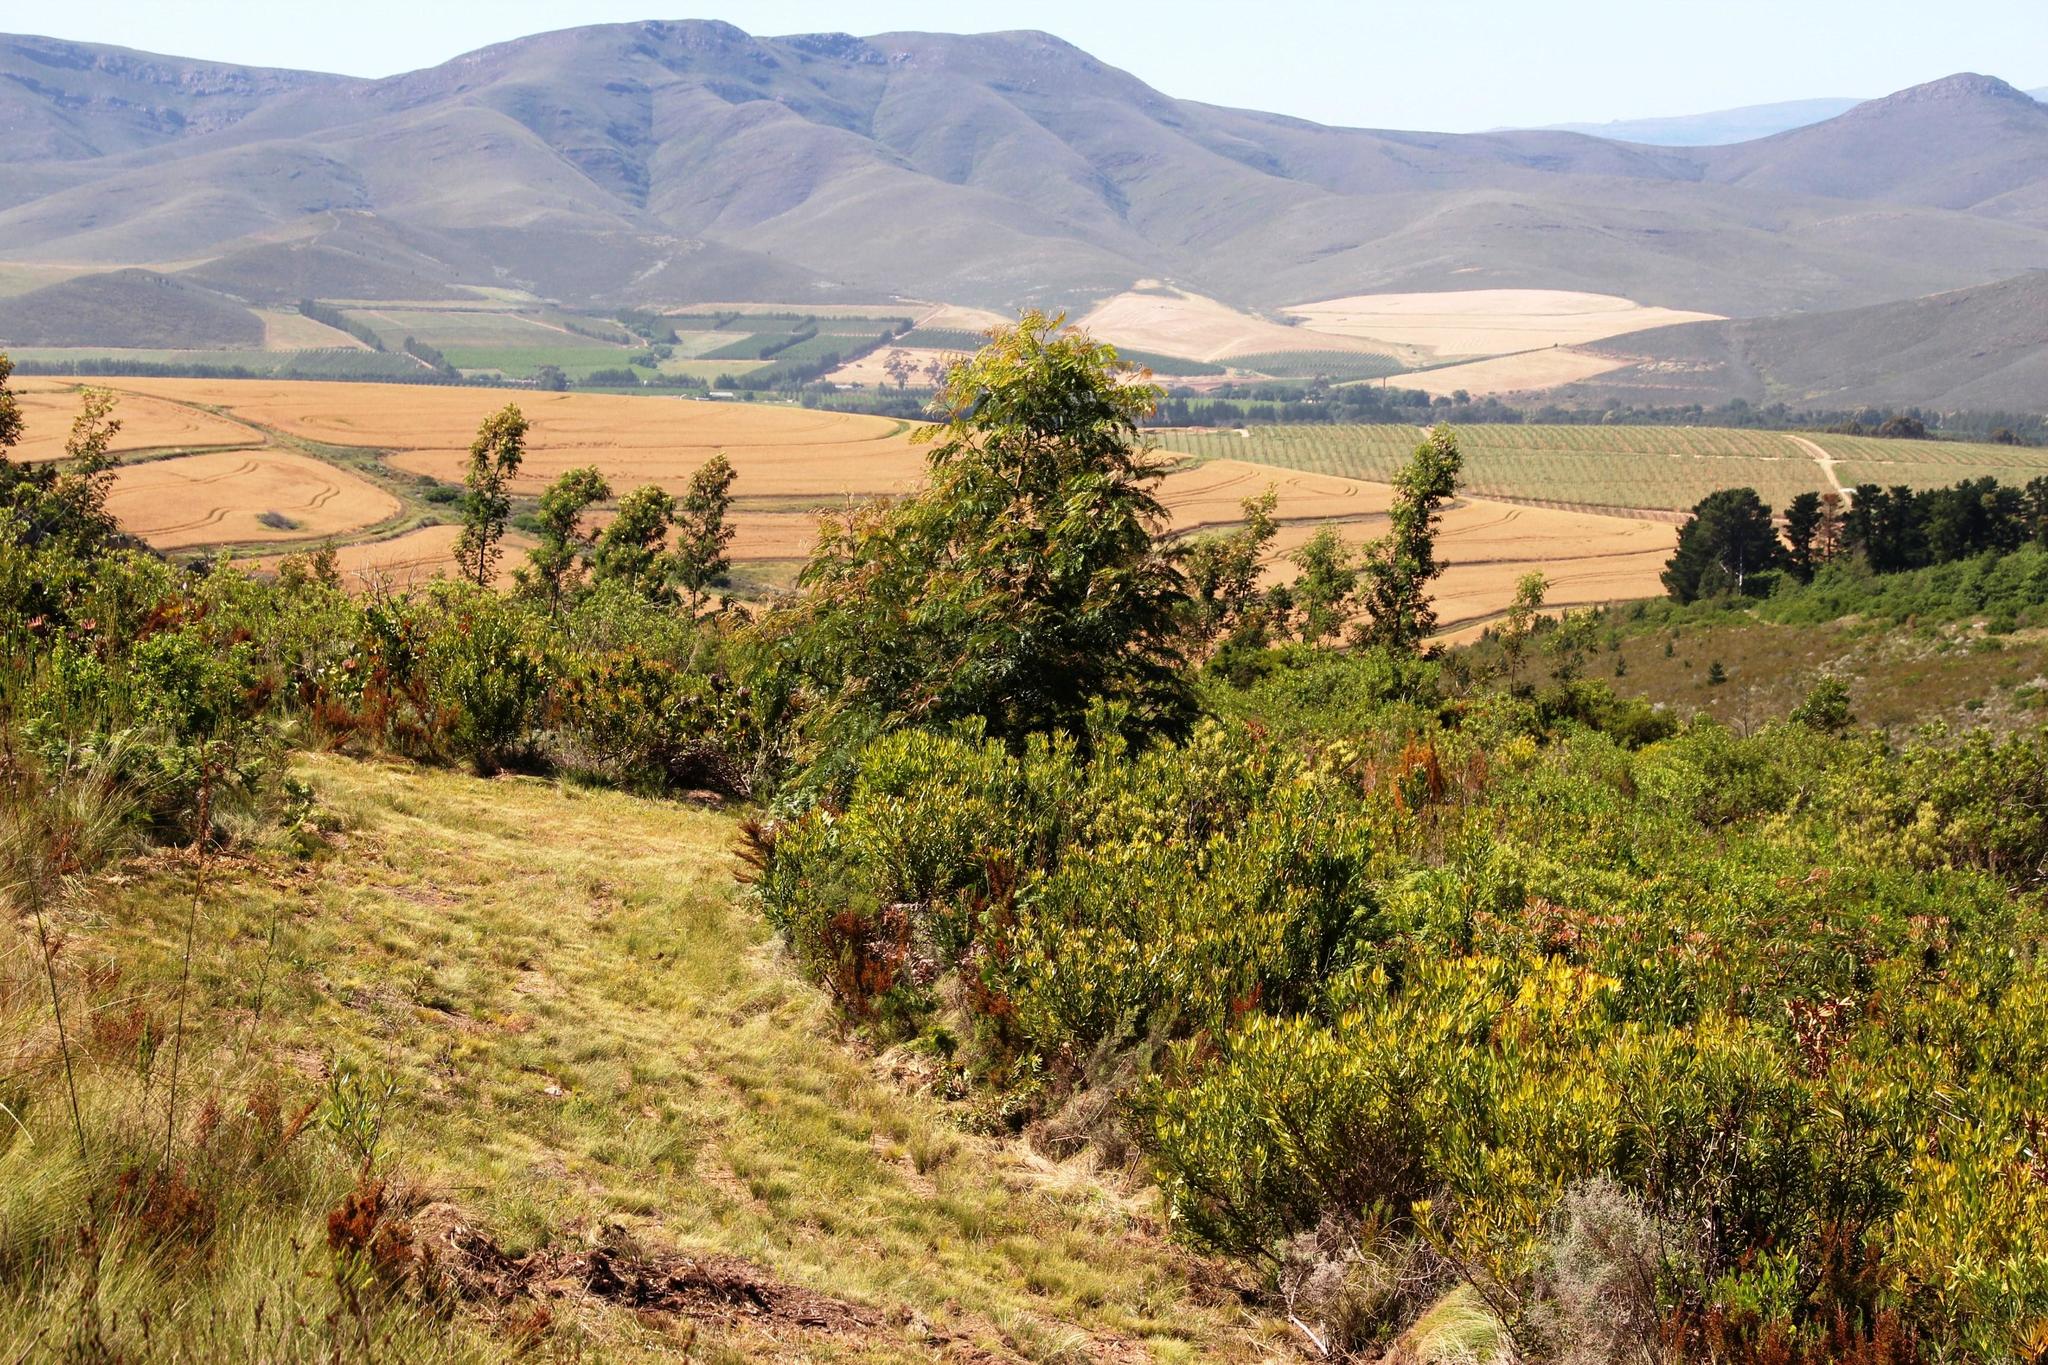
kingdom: Plantae
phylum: Tracheophyta
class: Magnoliopsida
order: Fabales
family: Fabaceae
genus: Acacia
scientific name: Acacia elata
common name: Cedar wattle
